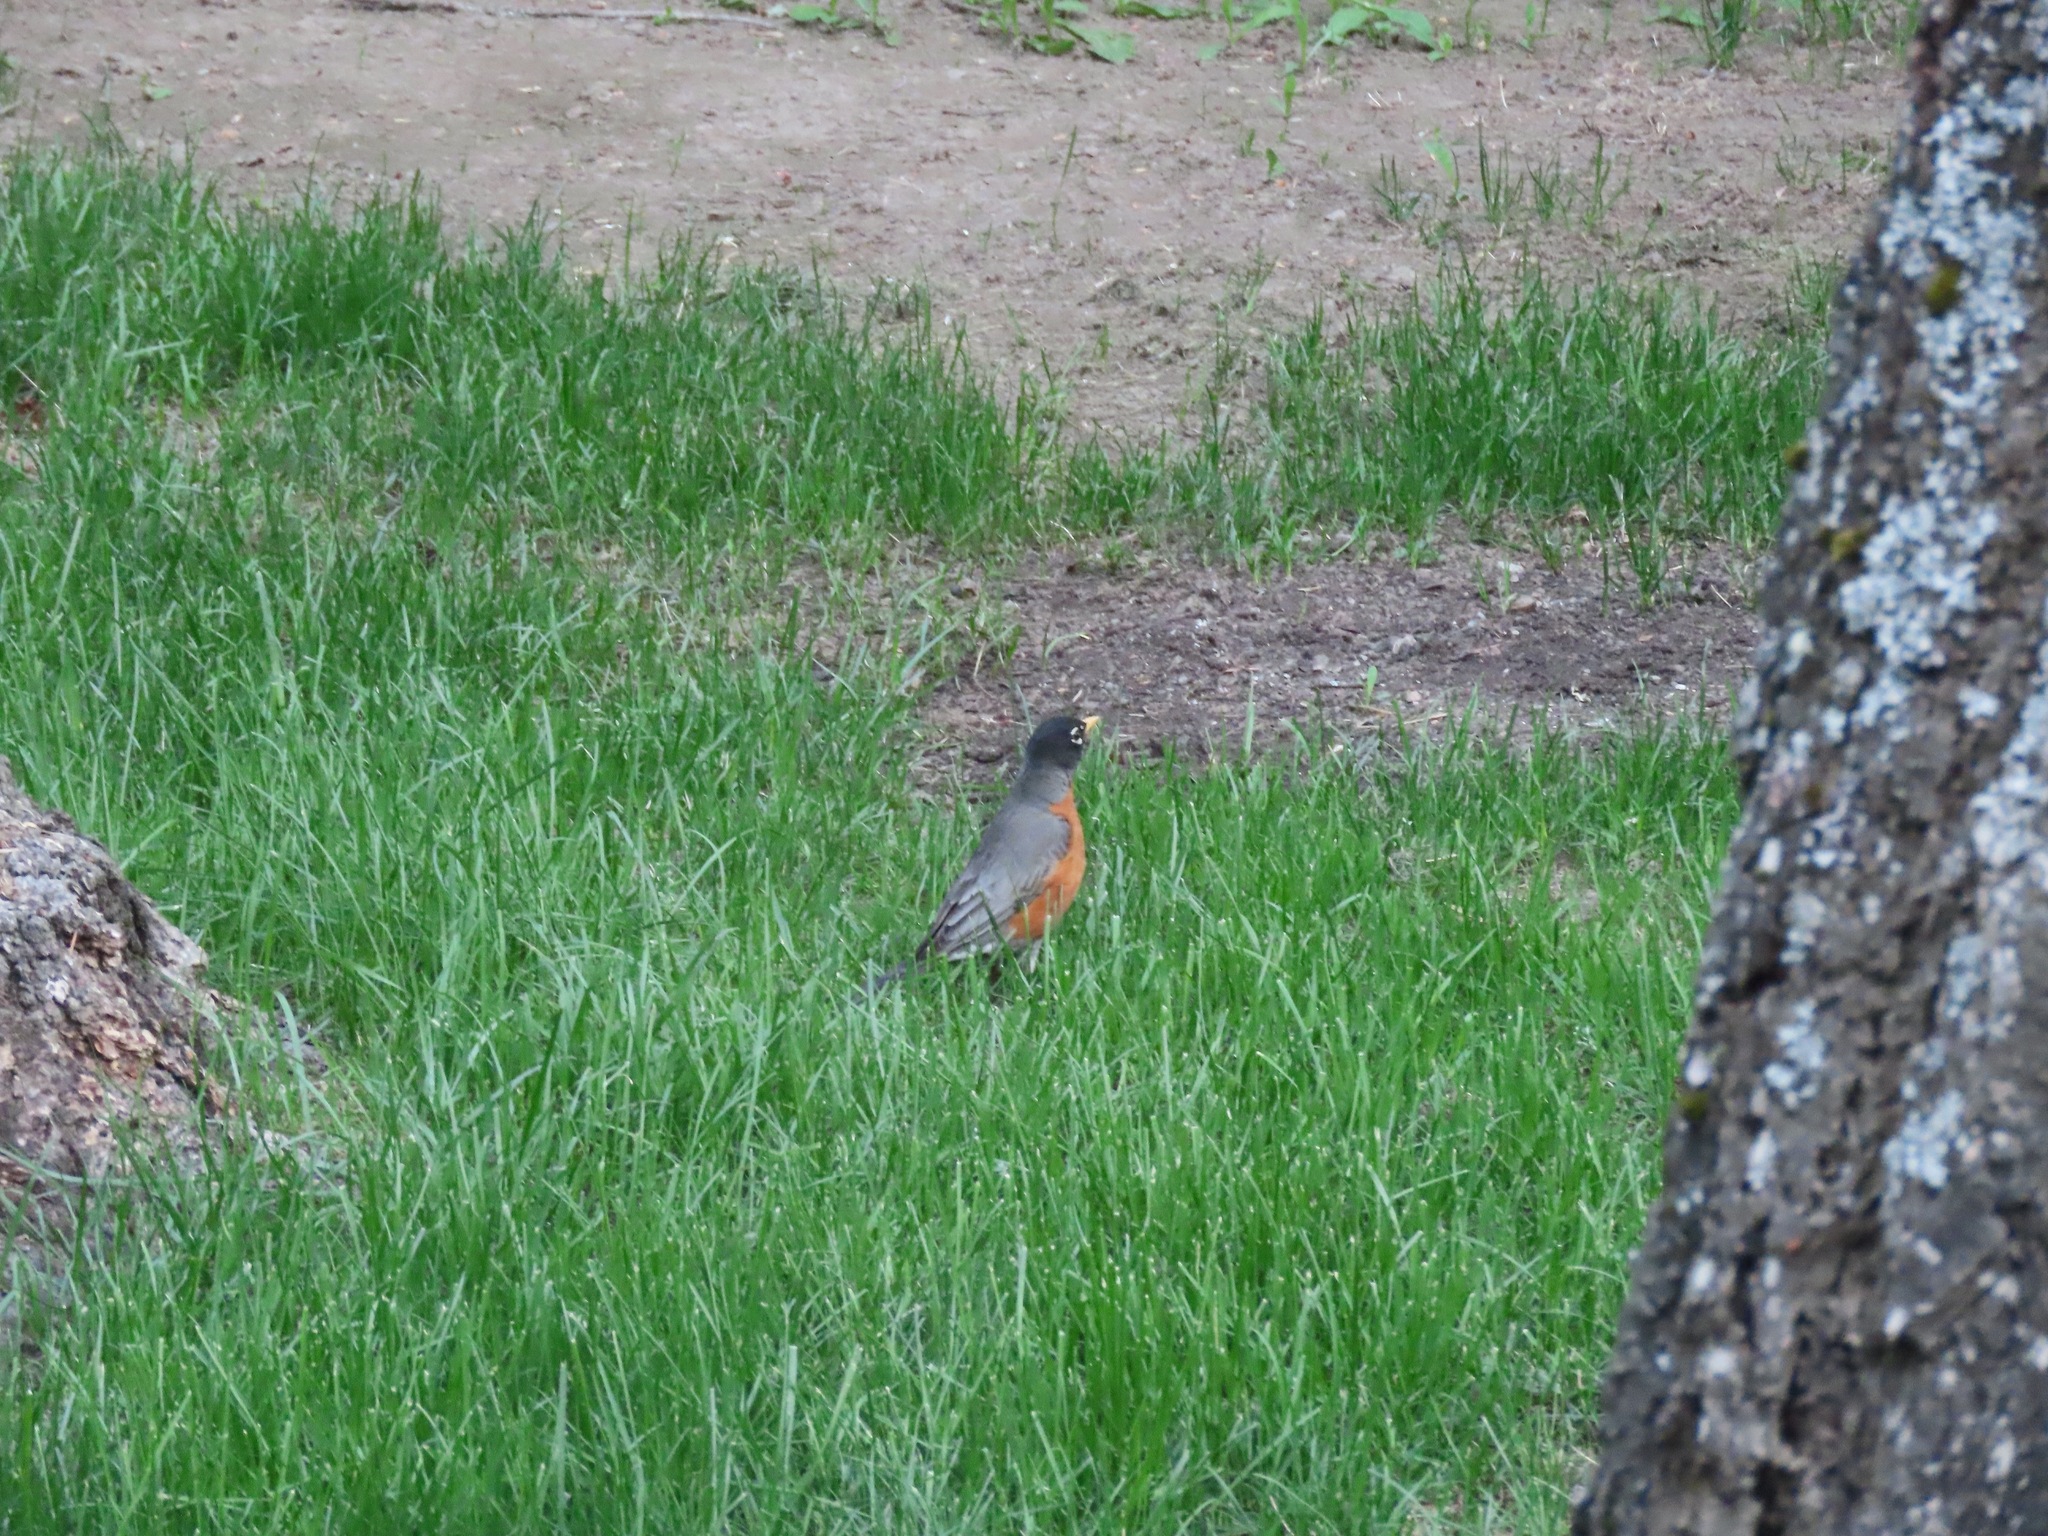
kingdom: Animalia
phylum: Chordata
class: Aves
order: Passeriformes
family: Turdidae
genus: Turdus
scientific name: Turdus migratorius
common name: American robin
